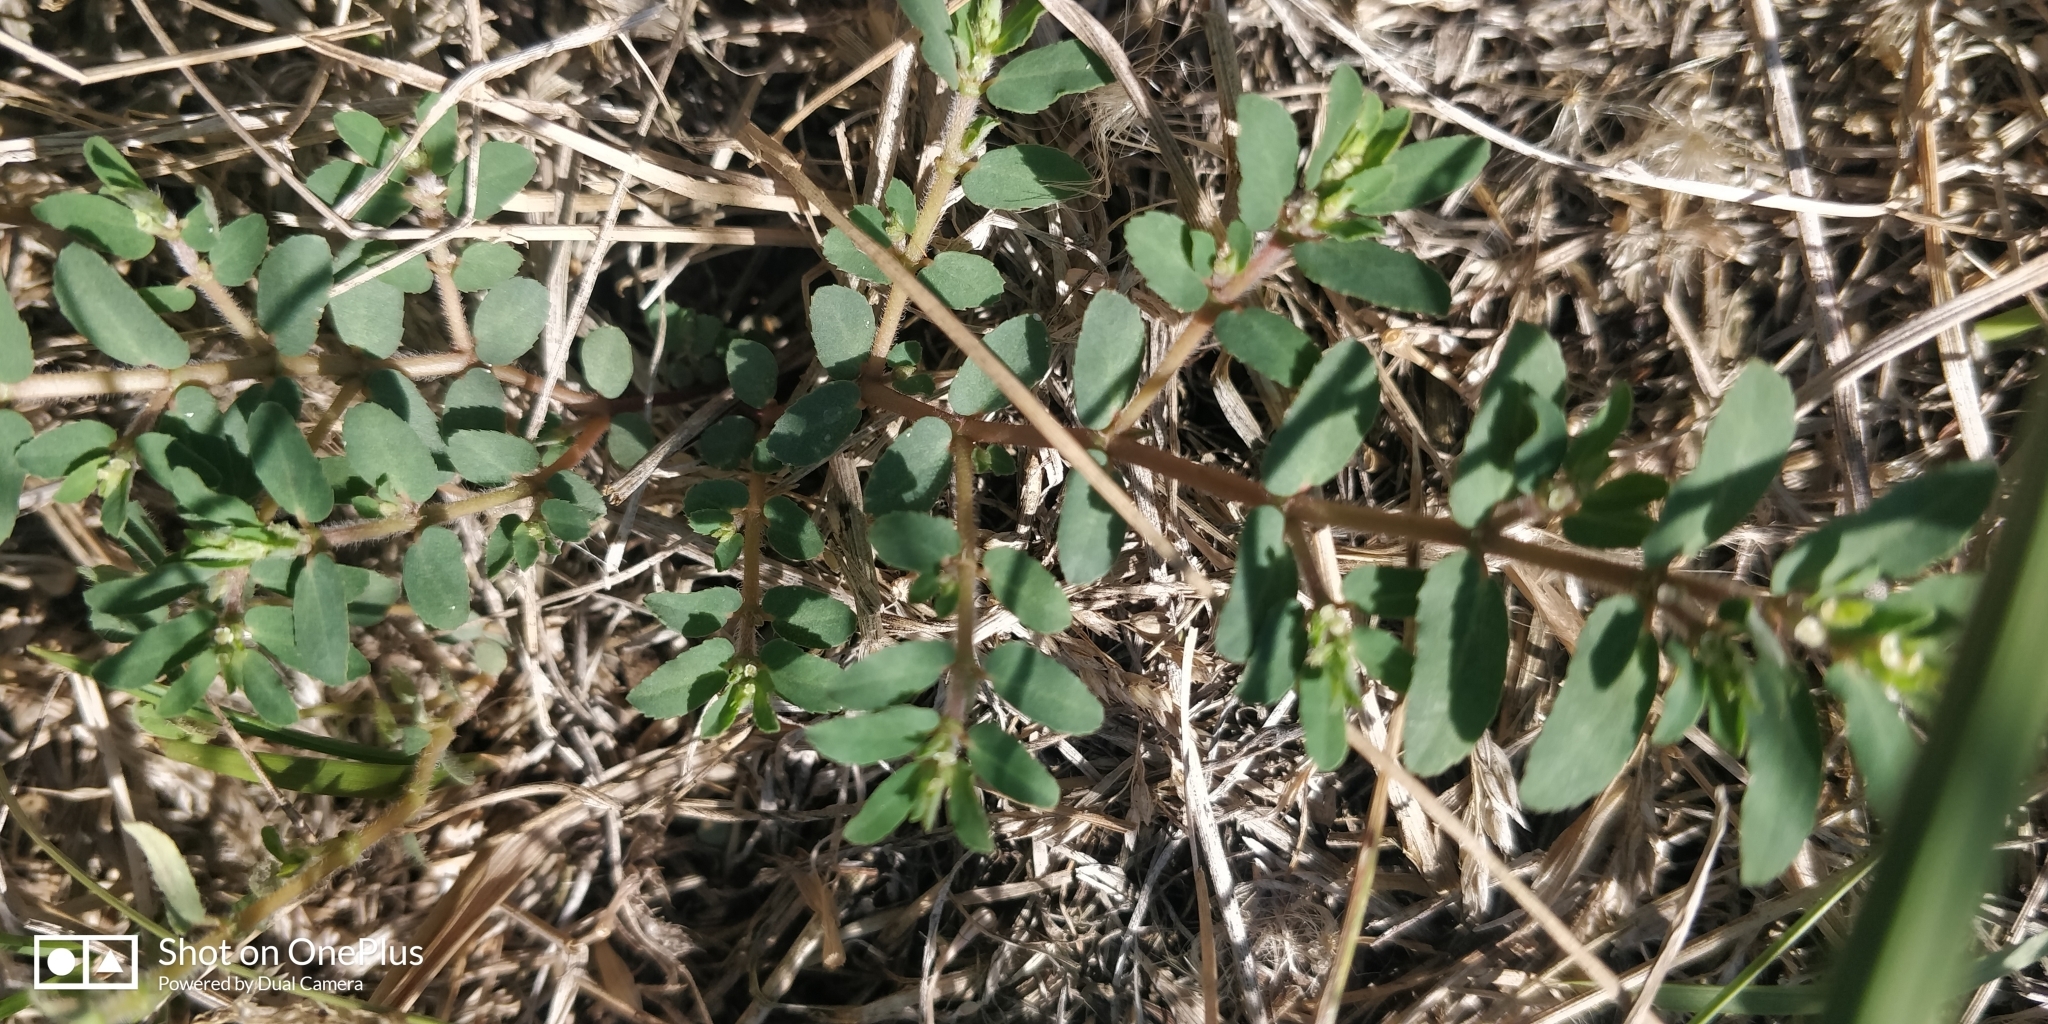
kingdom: Plantae
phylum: Tracheophyta
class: Magnoliopsida
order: Malpighiales
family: Euphorbiaceae
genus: Euphorbia
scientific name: Euphorbia maculata
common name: Spotted spurge
